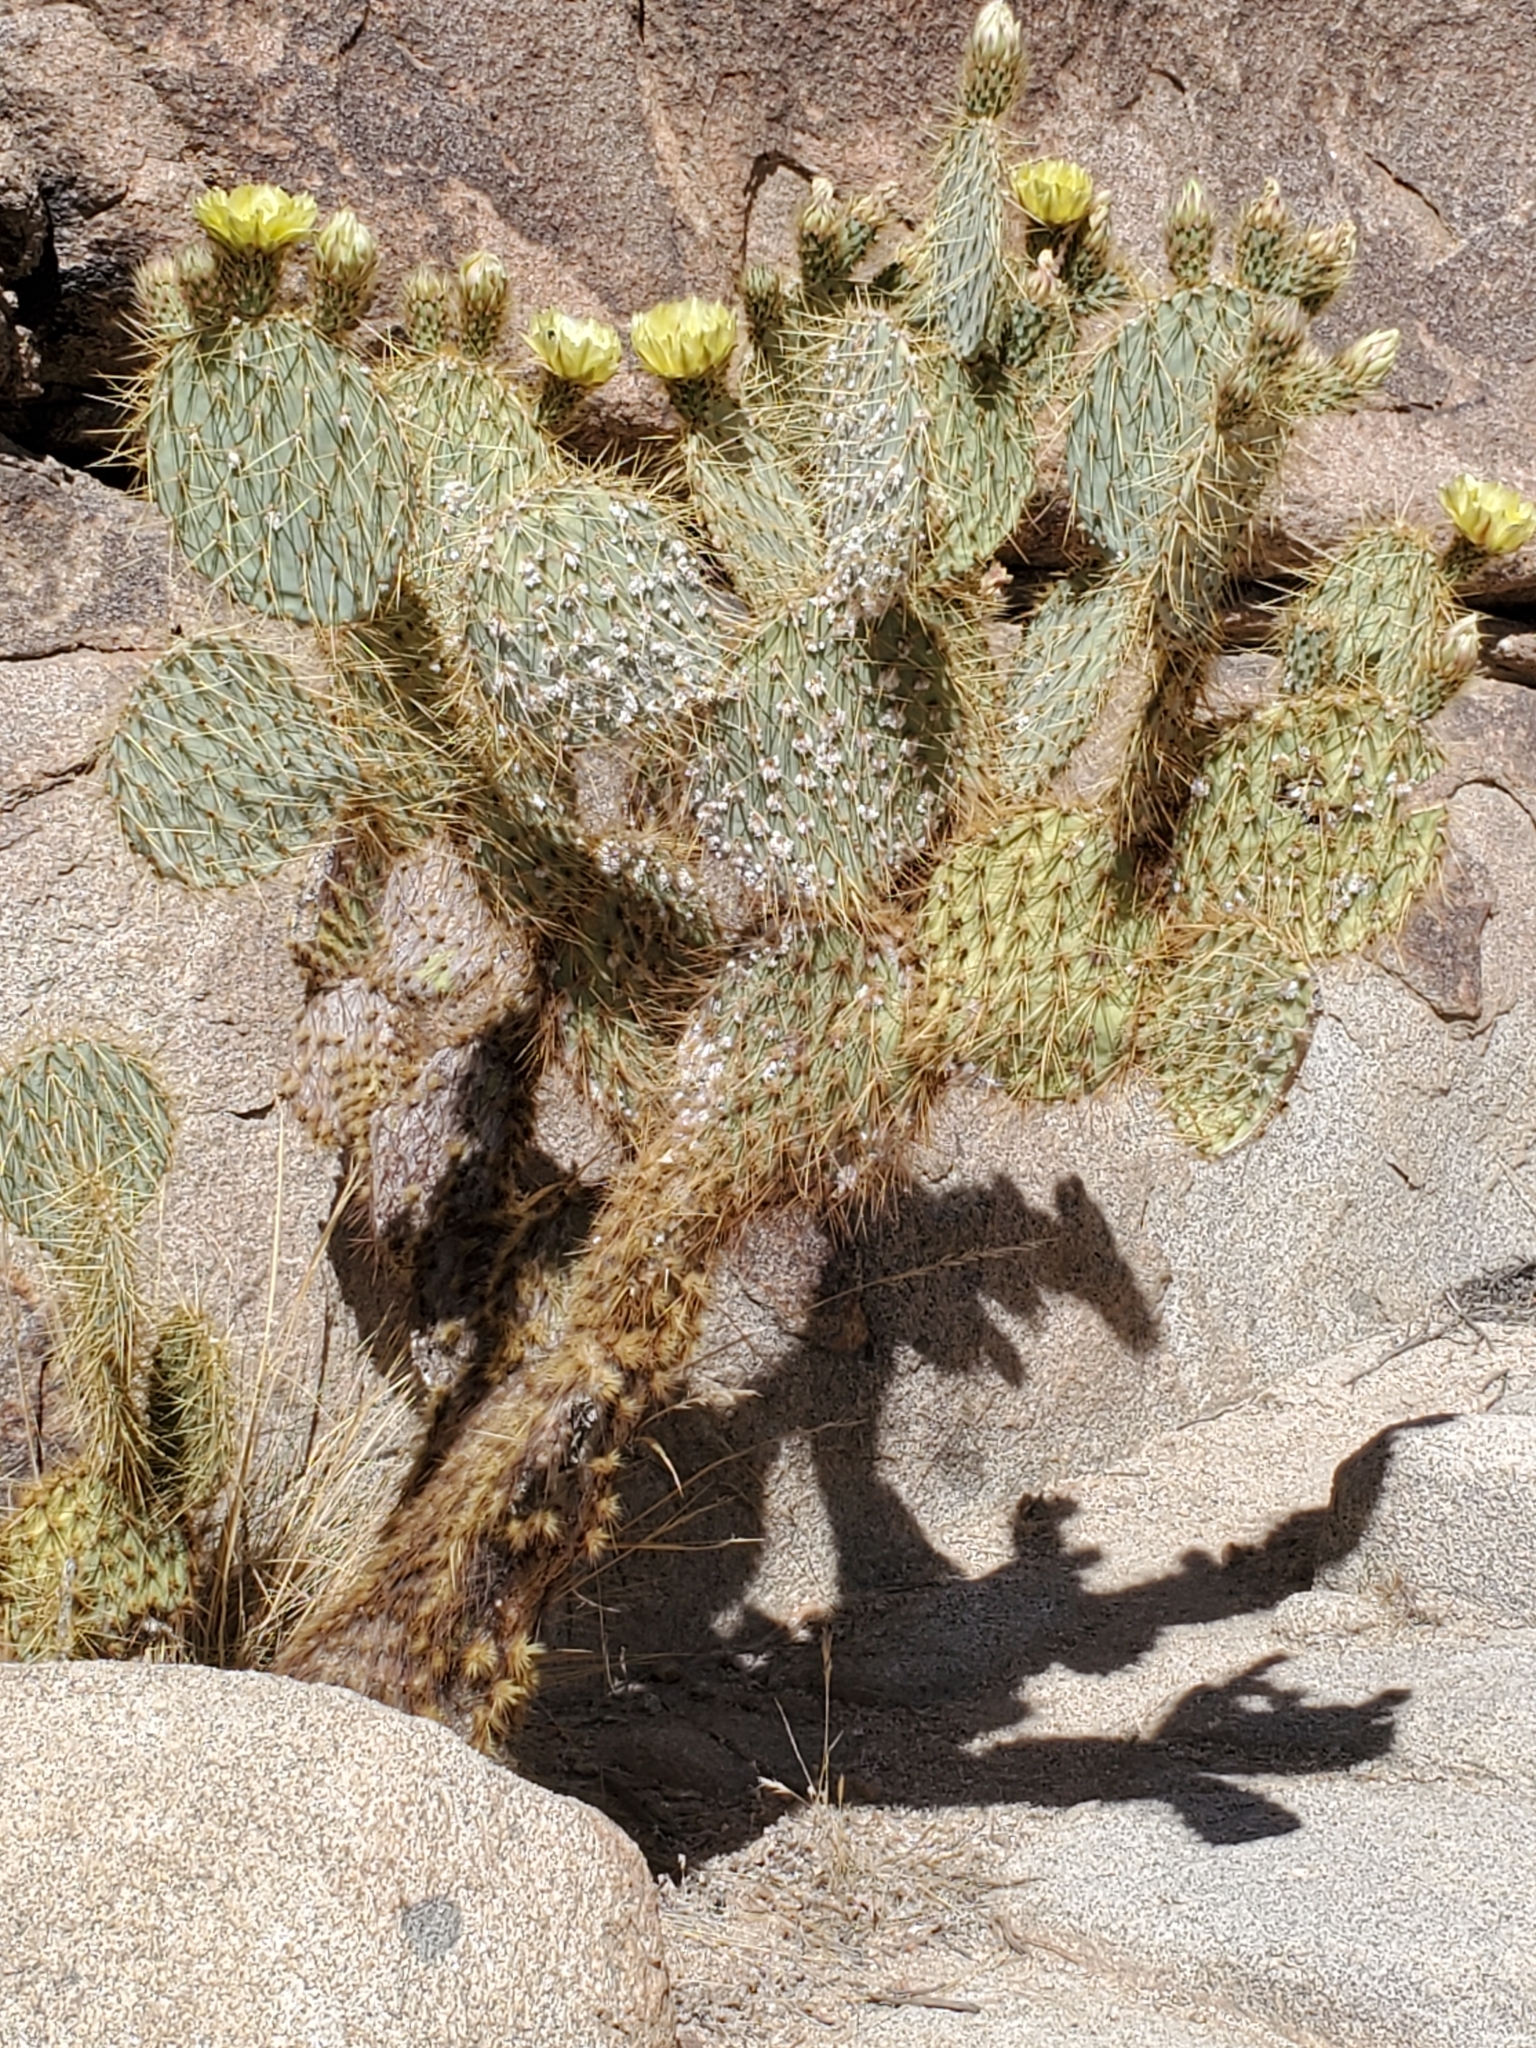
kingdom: Plantae
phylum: Tracheophyta
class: Magnoliopsida
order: Caryophyllales
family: Cactaceae
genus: Opuntia
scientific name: Opuntia chlorotica
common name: Dollar-joint prickly-pear
